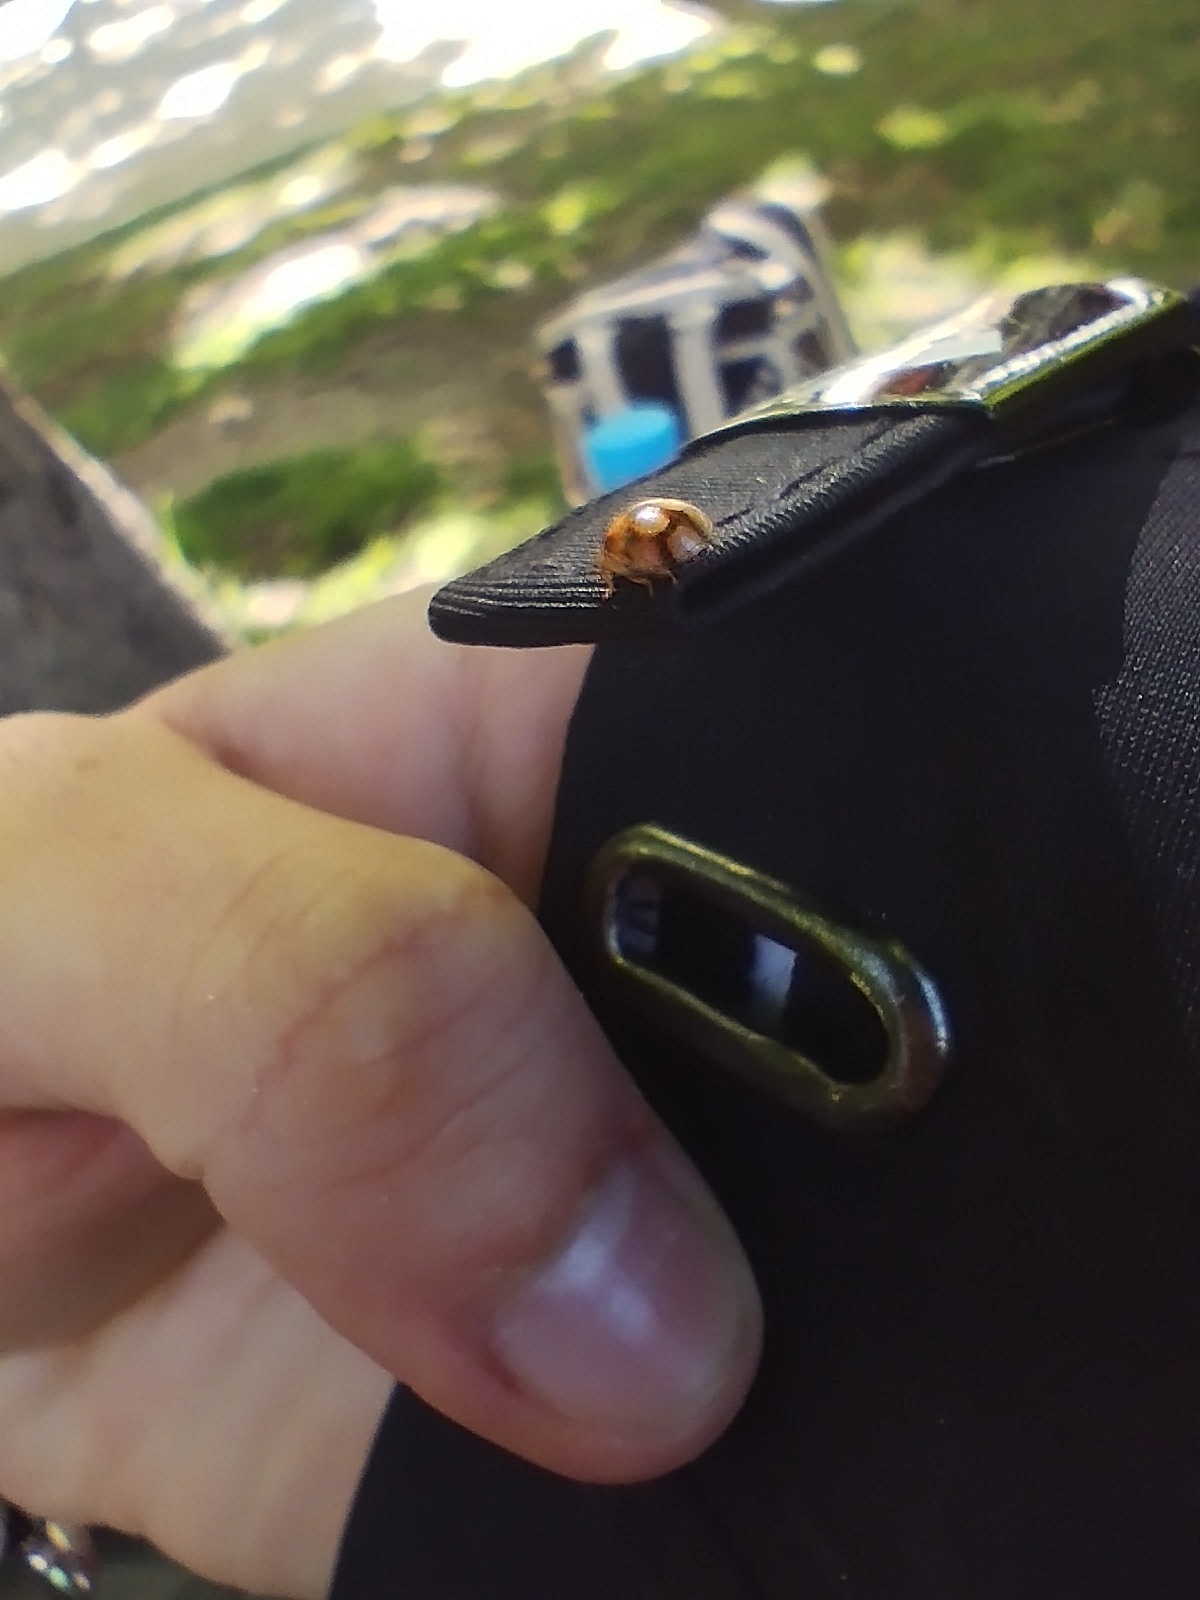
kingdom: Animalia
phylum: Arthropoda
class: Insecta
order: Coleoptera
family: Coccinellidae
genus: Adalia
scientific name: Adalia decempunctata
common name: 10-spot ladybird
